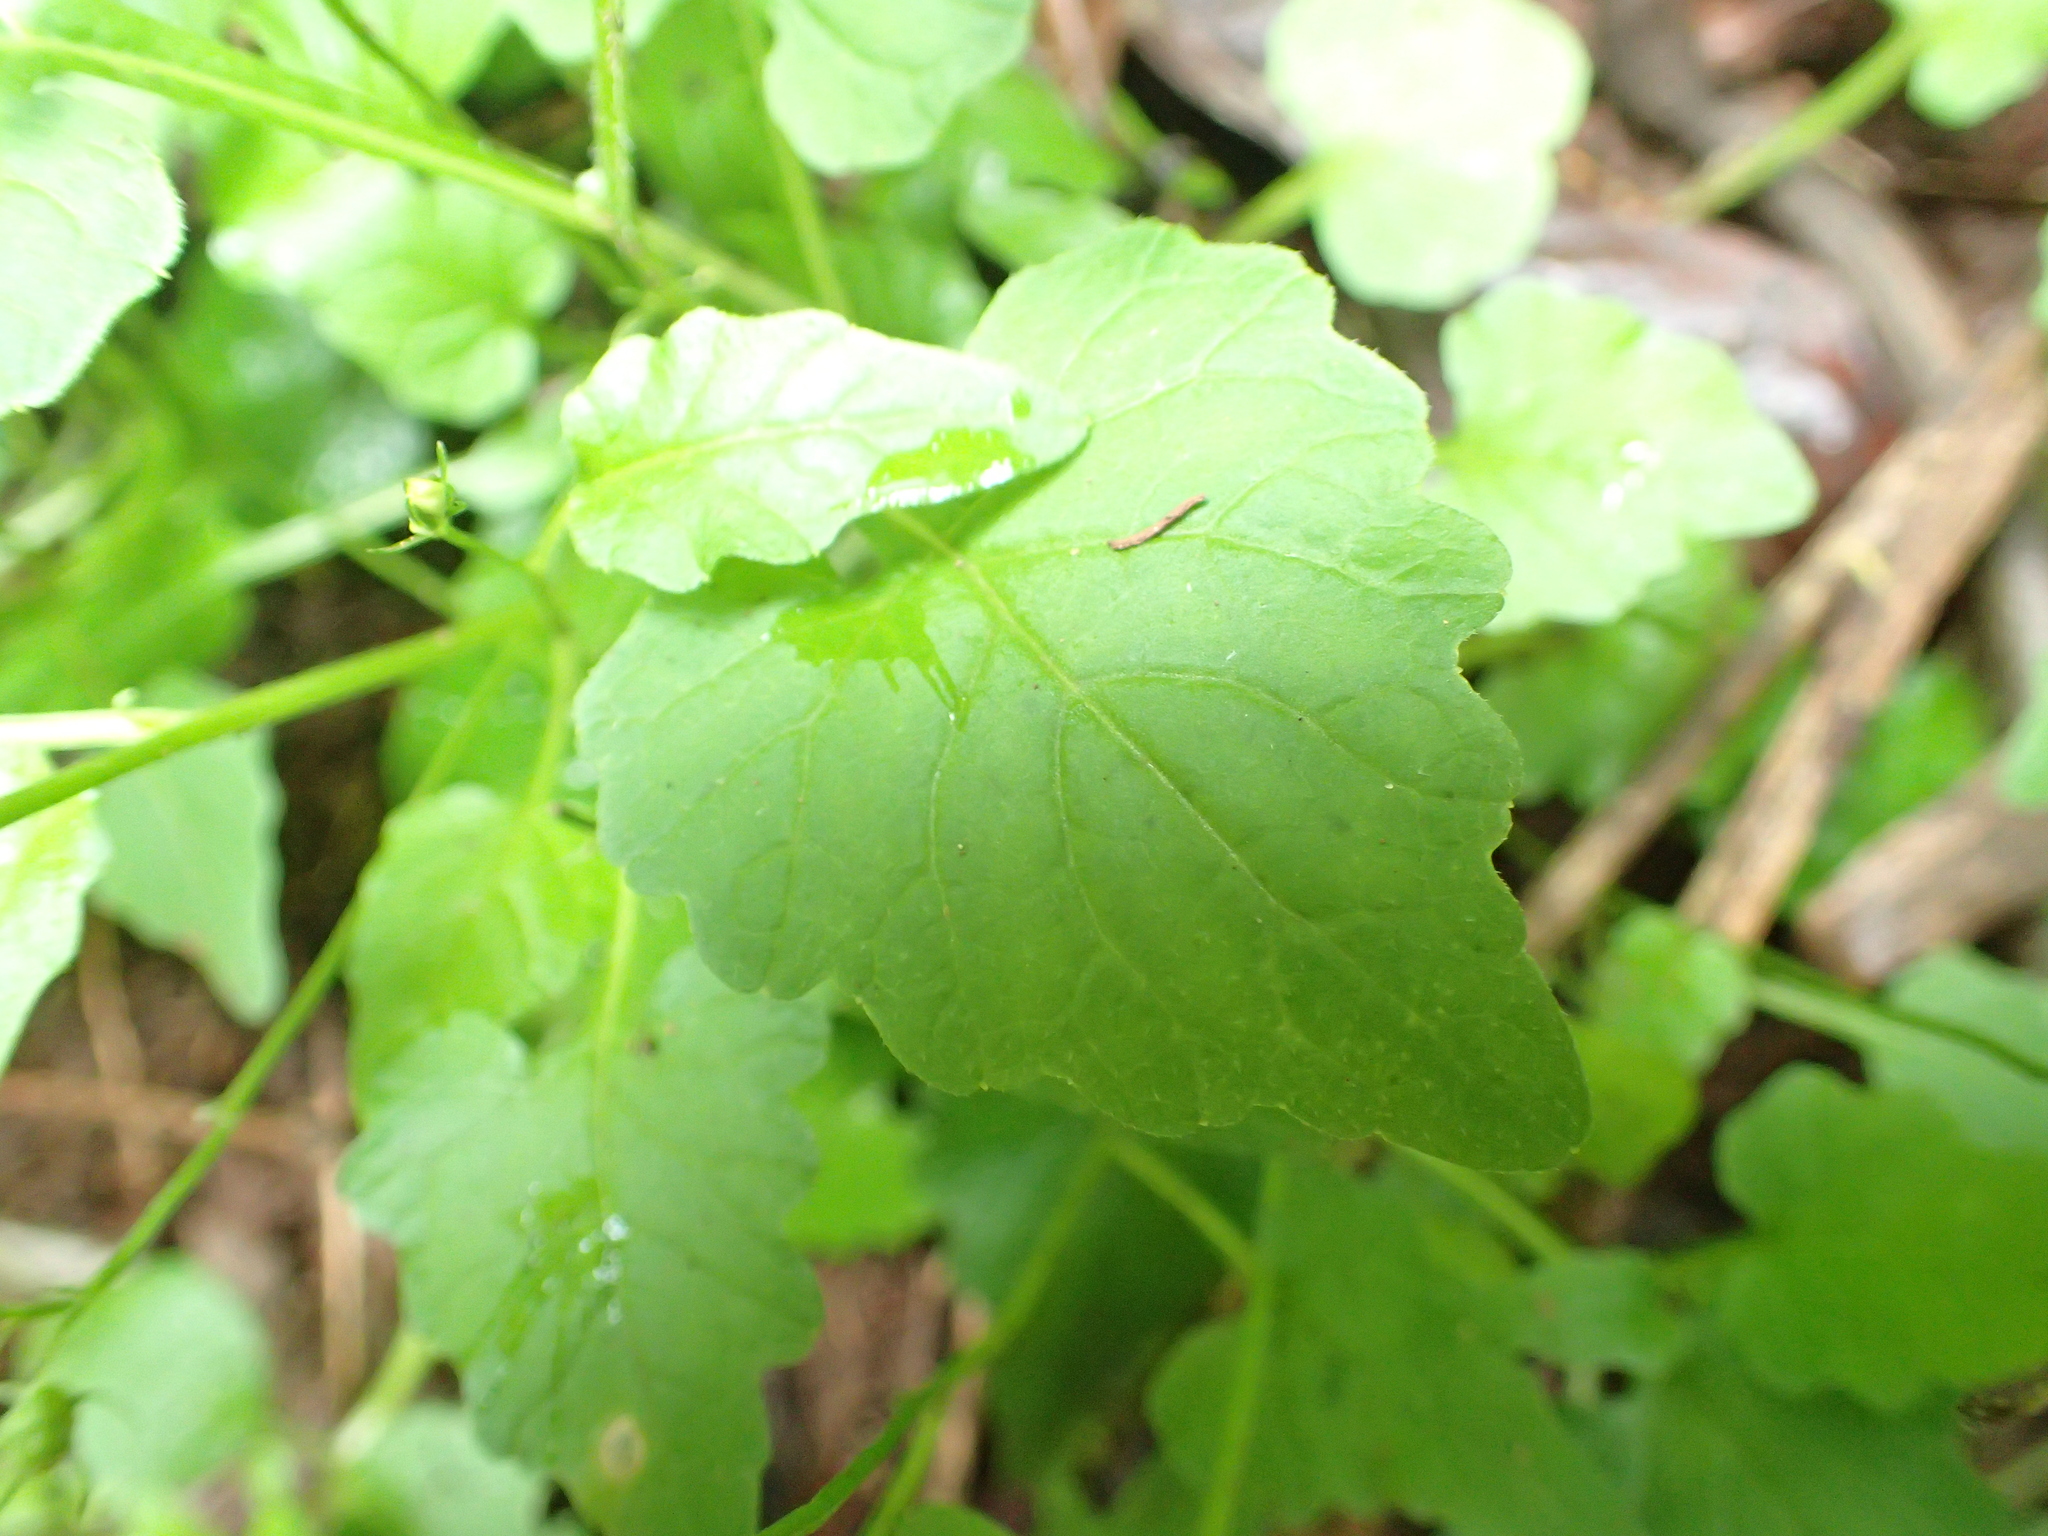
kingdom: Plantae
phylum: Tracheophyta
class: Magnoliopsida
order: Asterales
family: Campanulaceae
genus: Lobelia
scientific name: Lobelia pteropoda
